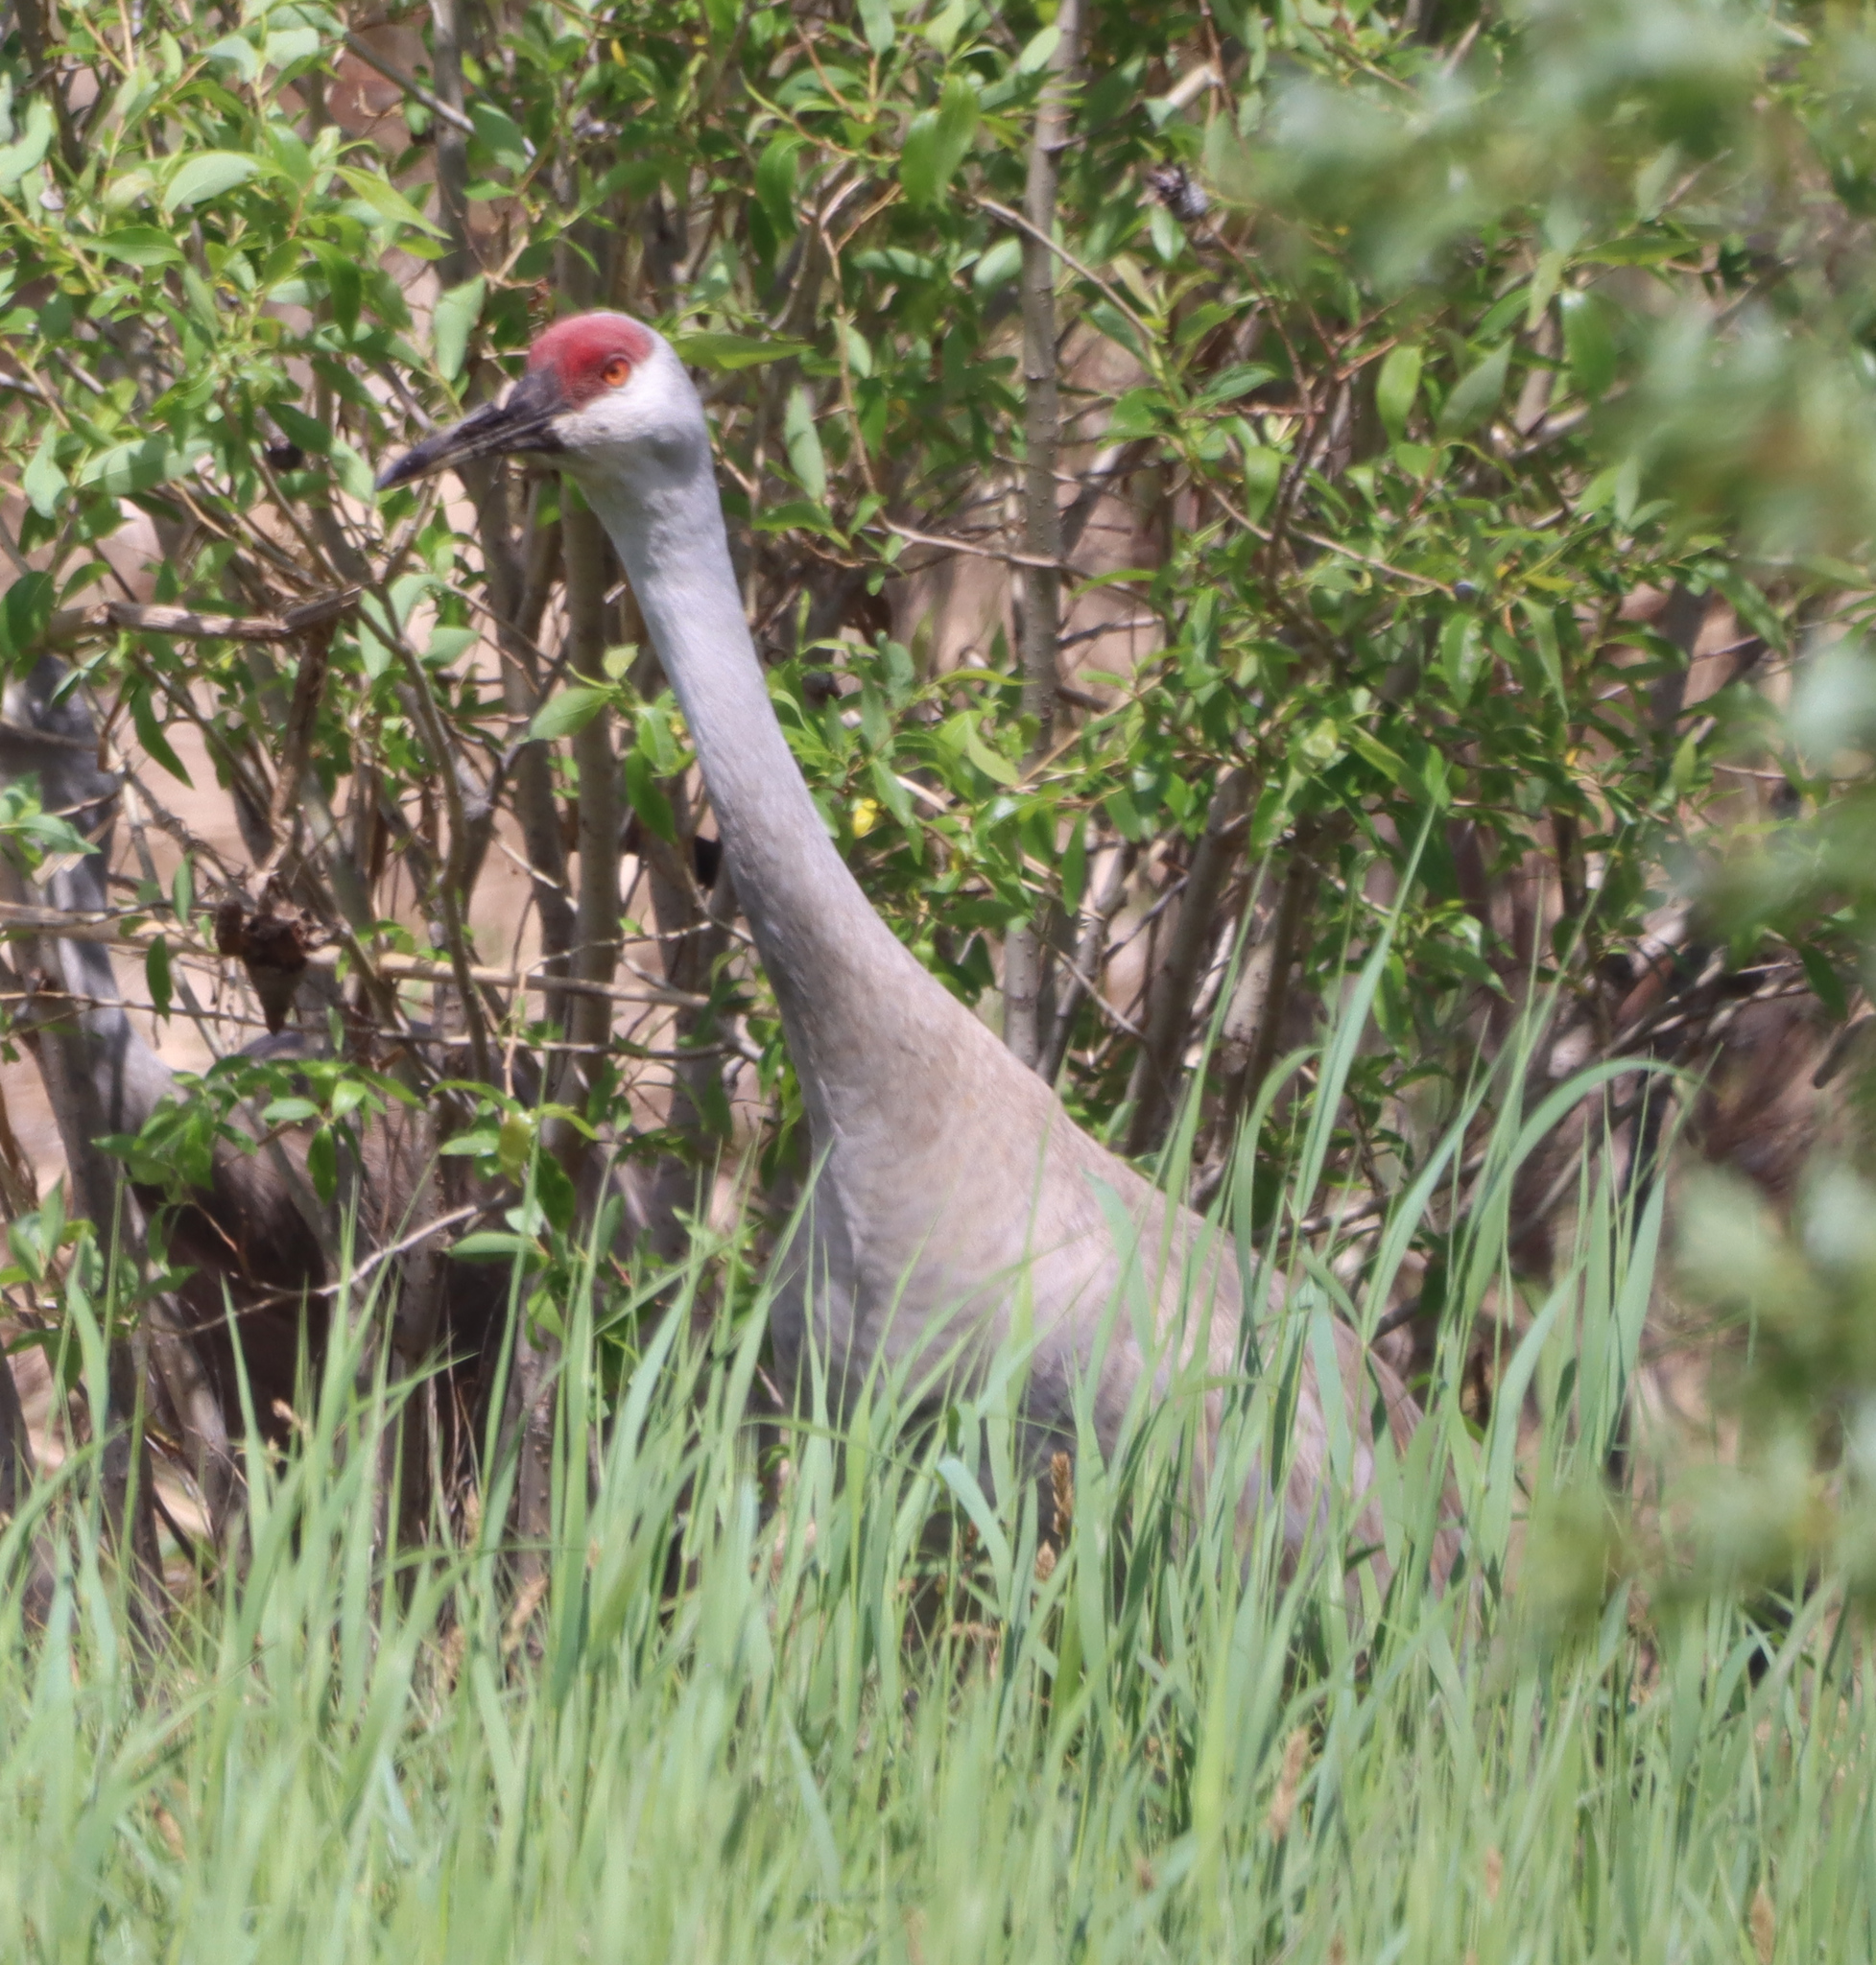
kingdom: Animalia
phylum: Chordata
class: Aves
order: Gruiformes
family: Gruidae
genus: Grus
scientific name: Grus canadensis
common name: Sandhill crane
